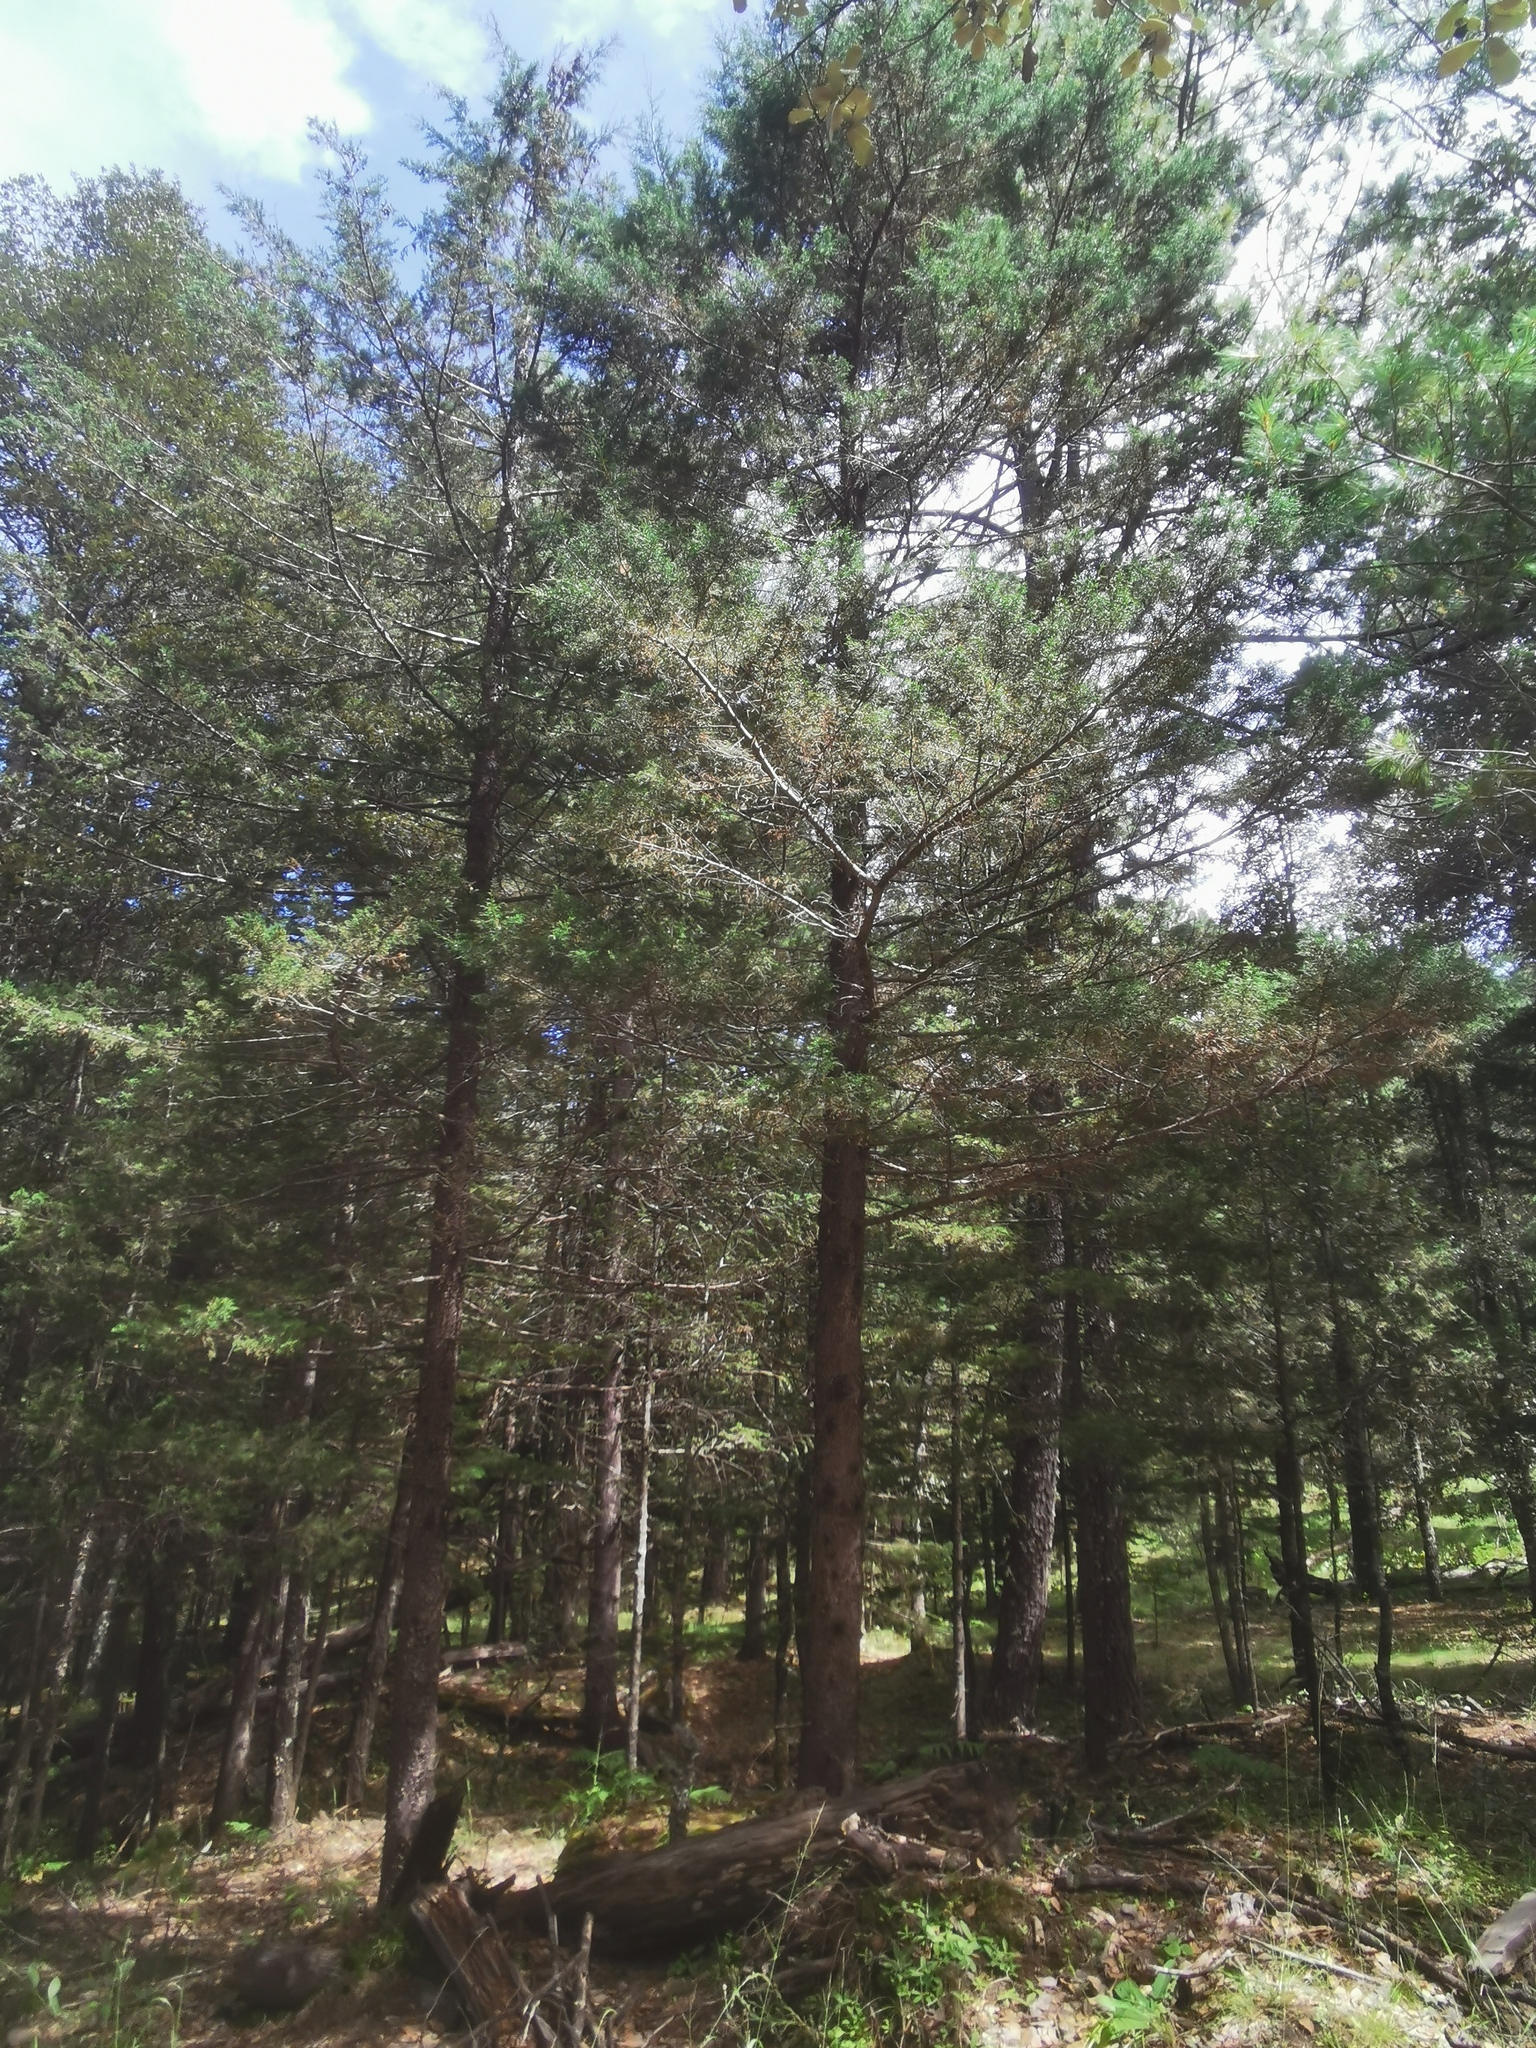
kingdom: Plantae
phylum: Tracheophyta
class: Pinopsida
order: Pinales
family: Cupressaceae
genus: Cupressus
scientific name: Cupressus lusitanica
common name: Mexican cypress
